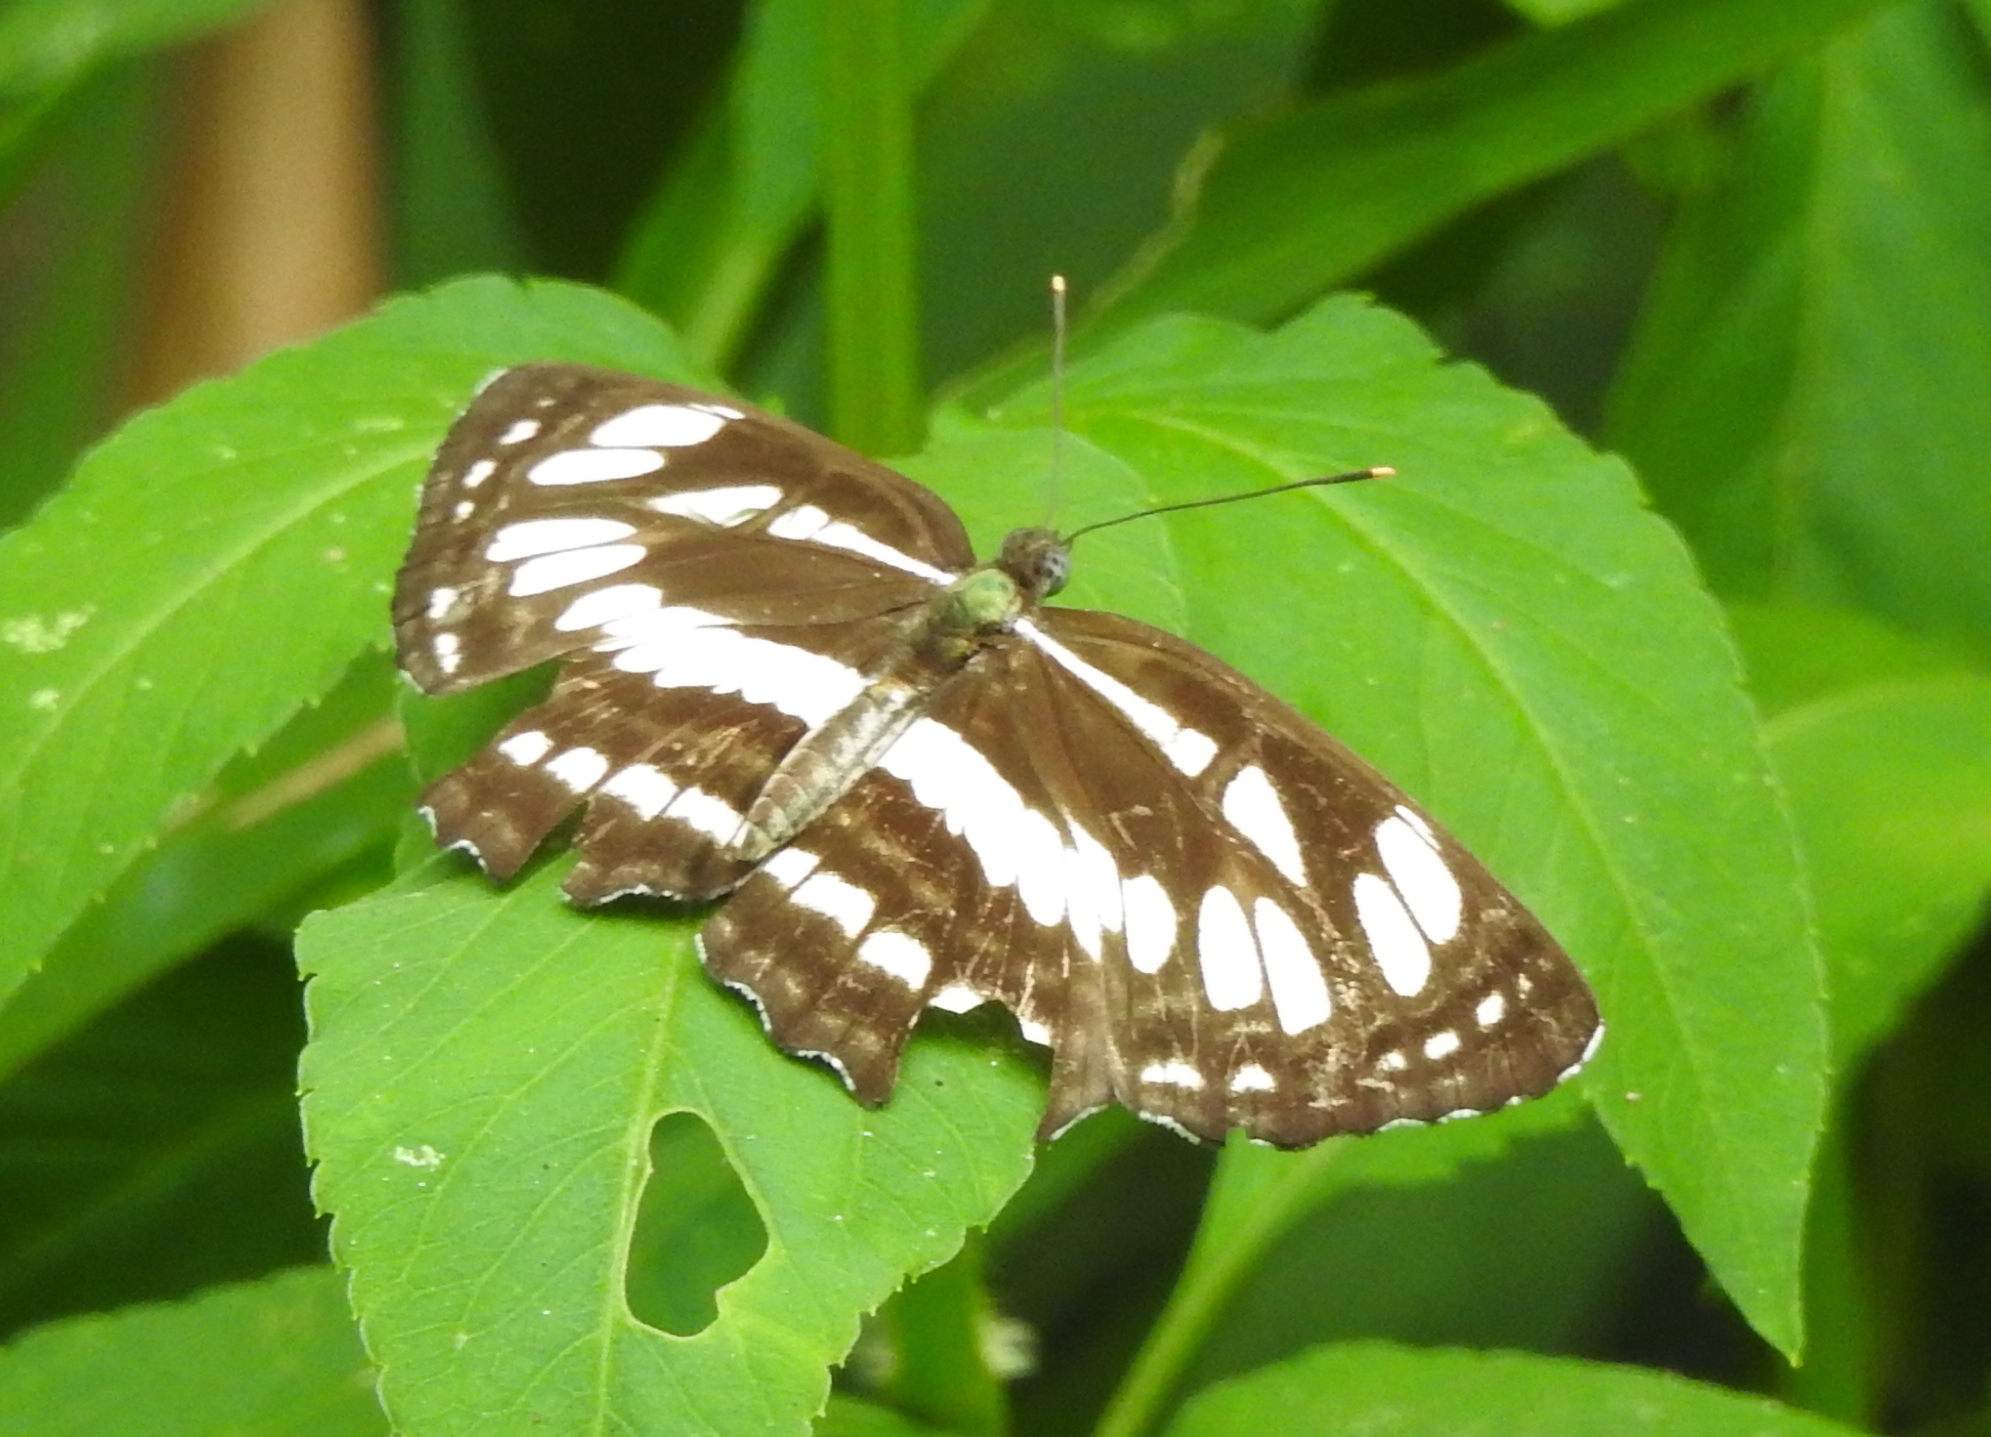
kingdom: Animalia
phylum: Arthropoda
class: Insecta
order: Lepidoptera
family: Nymphalidae
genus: Neptis
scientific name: Neptis hylas
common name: Common sailer
